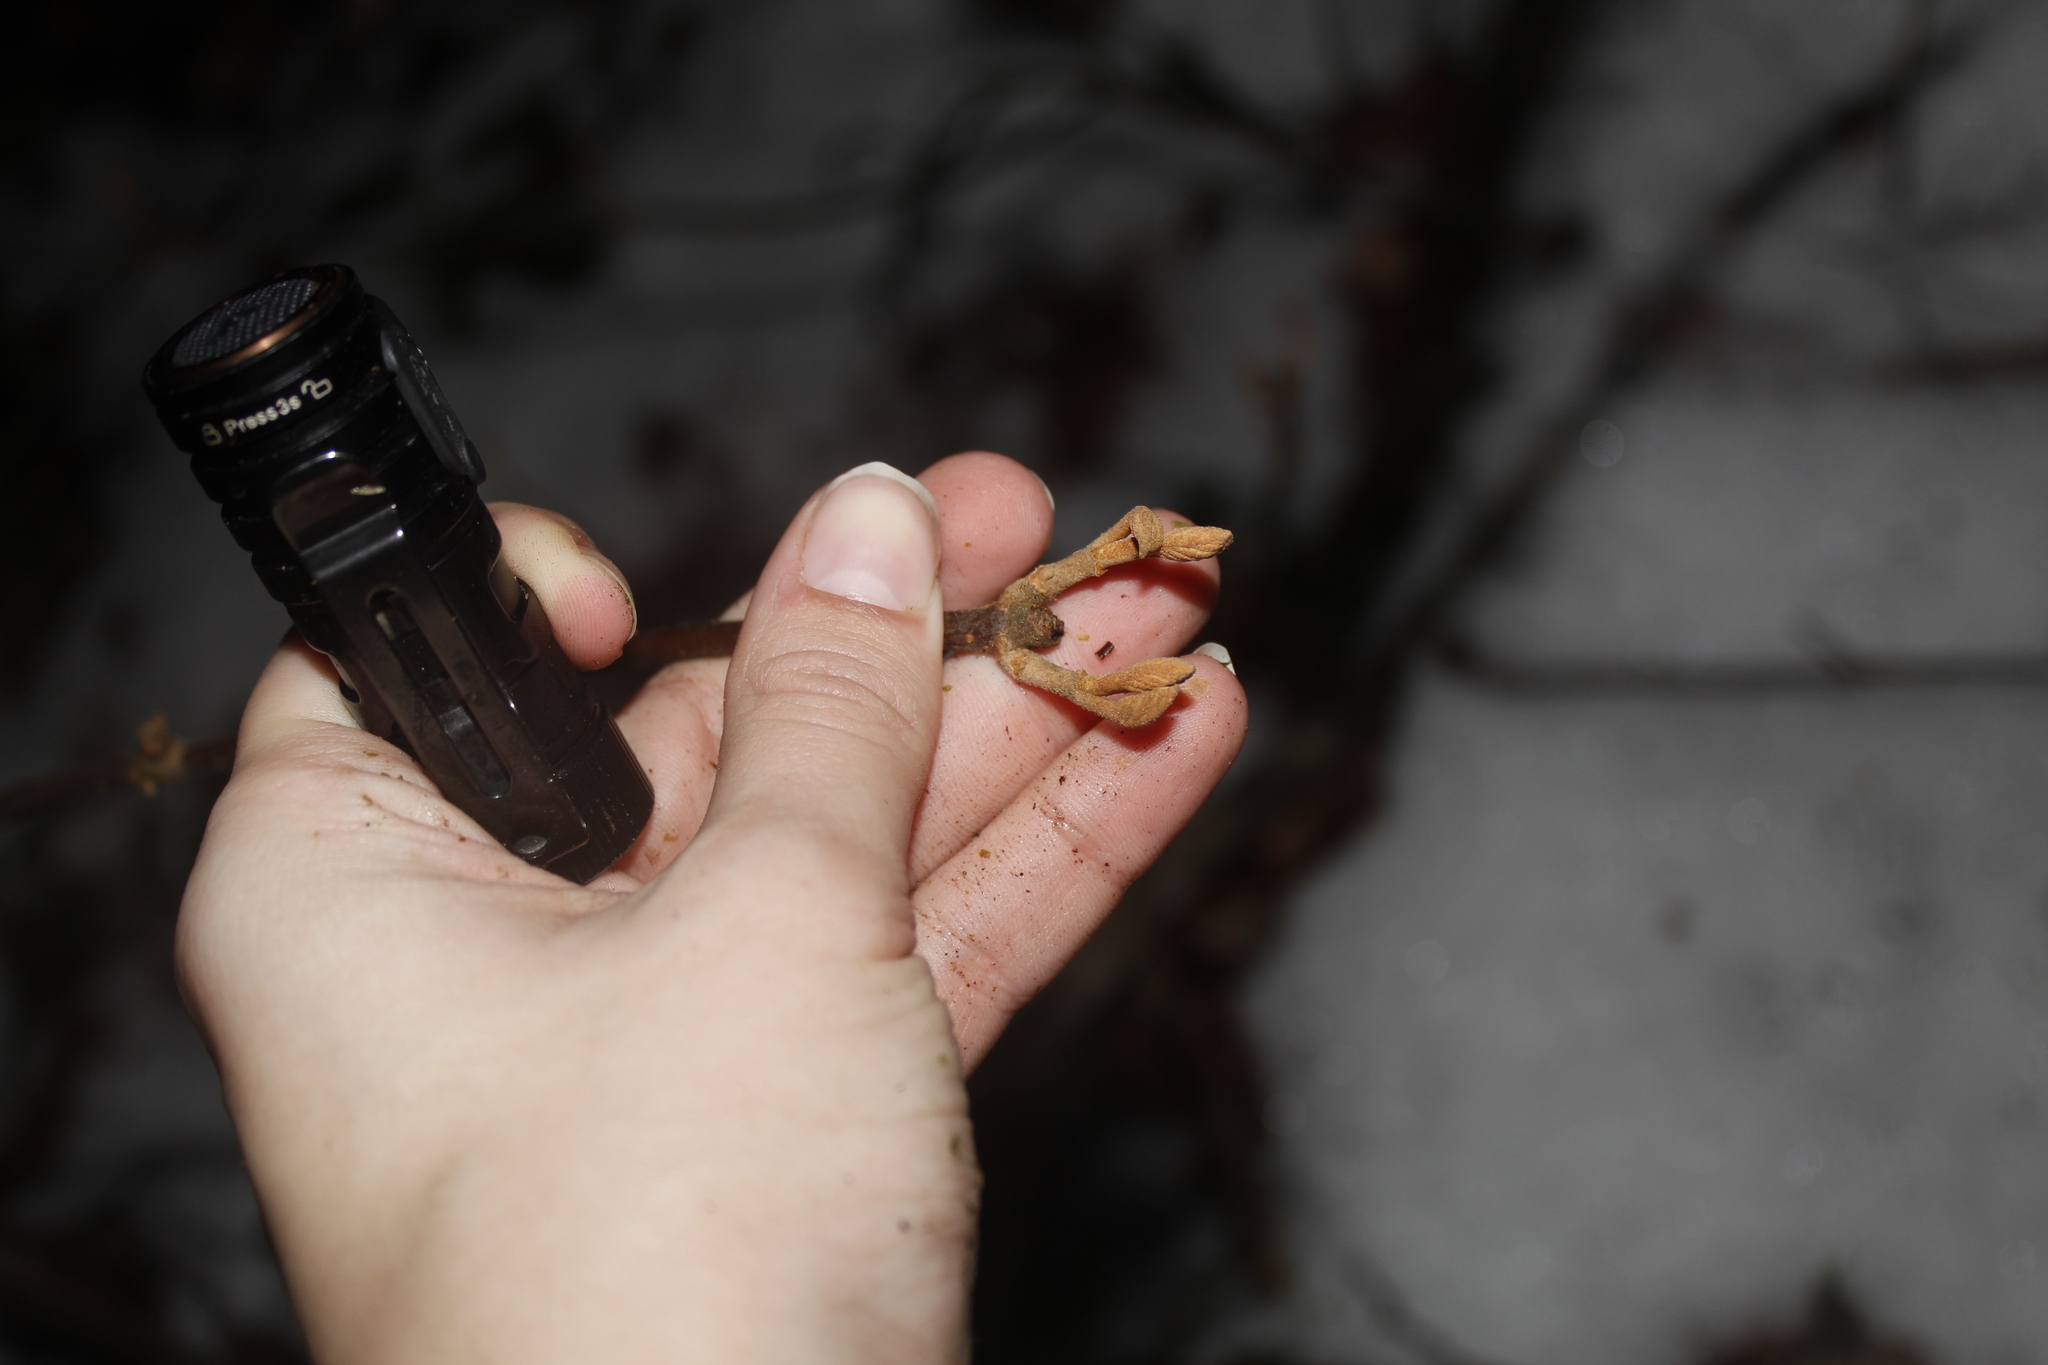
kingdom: Plantae
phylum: Tracheophyta
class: Magnoliopsida
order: Dipsacales
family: Viburnaceae
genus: Viburnum
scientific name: Viburnum lantanoides
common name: Hobblebush
